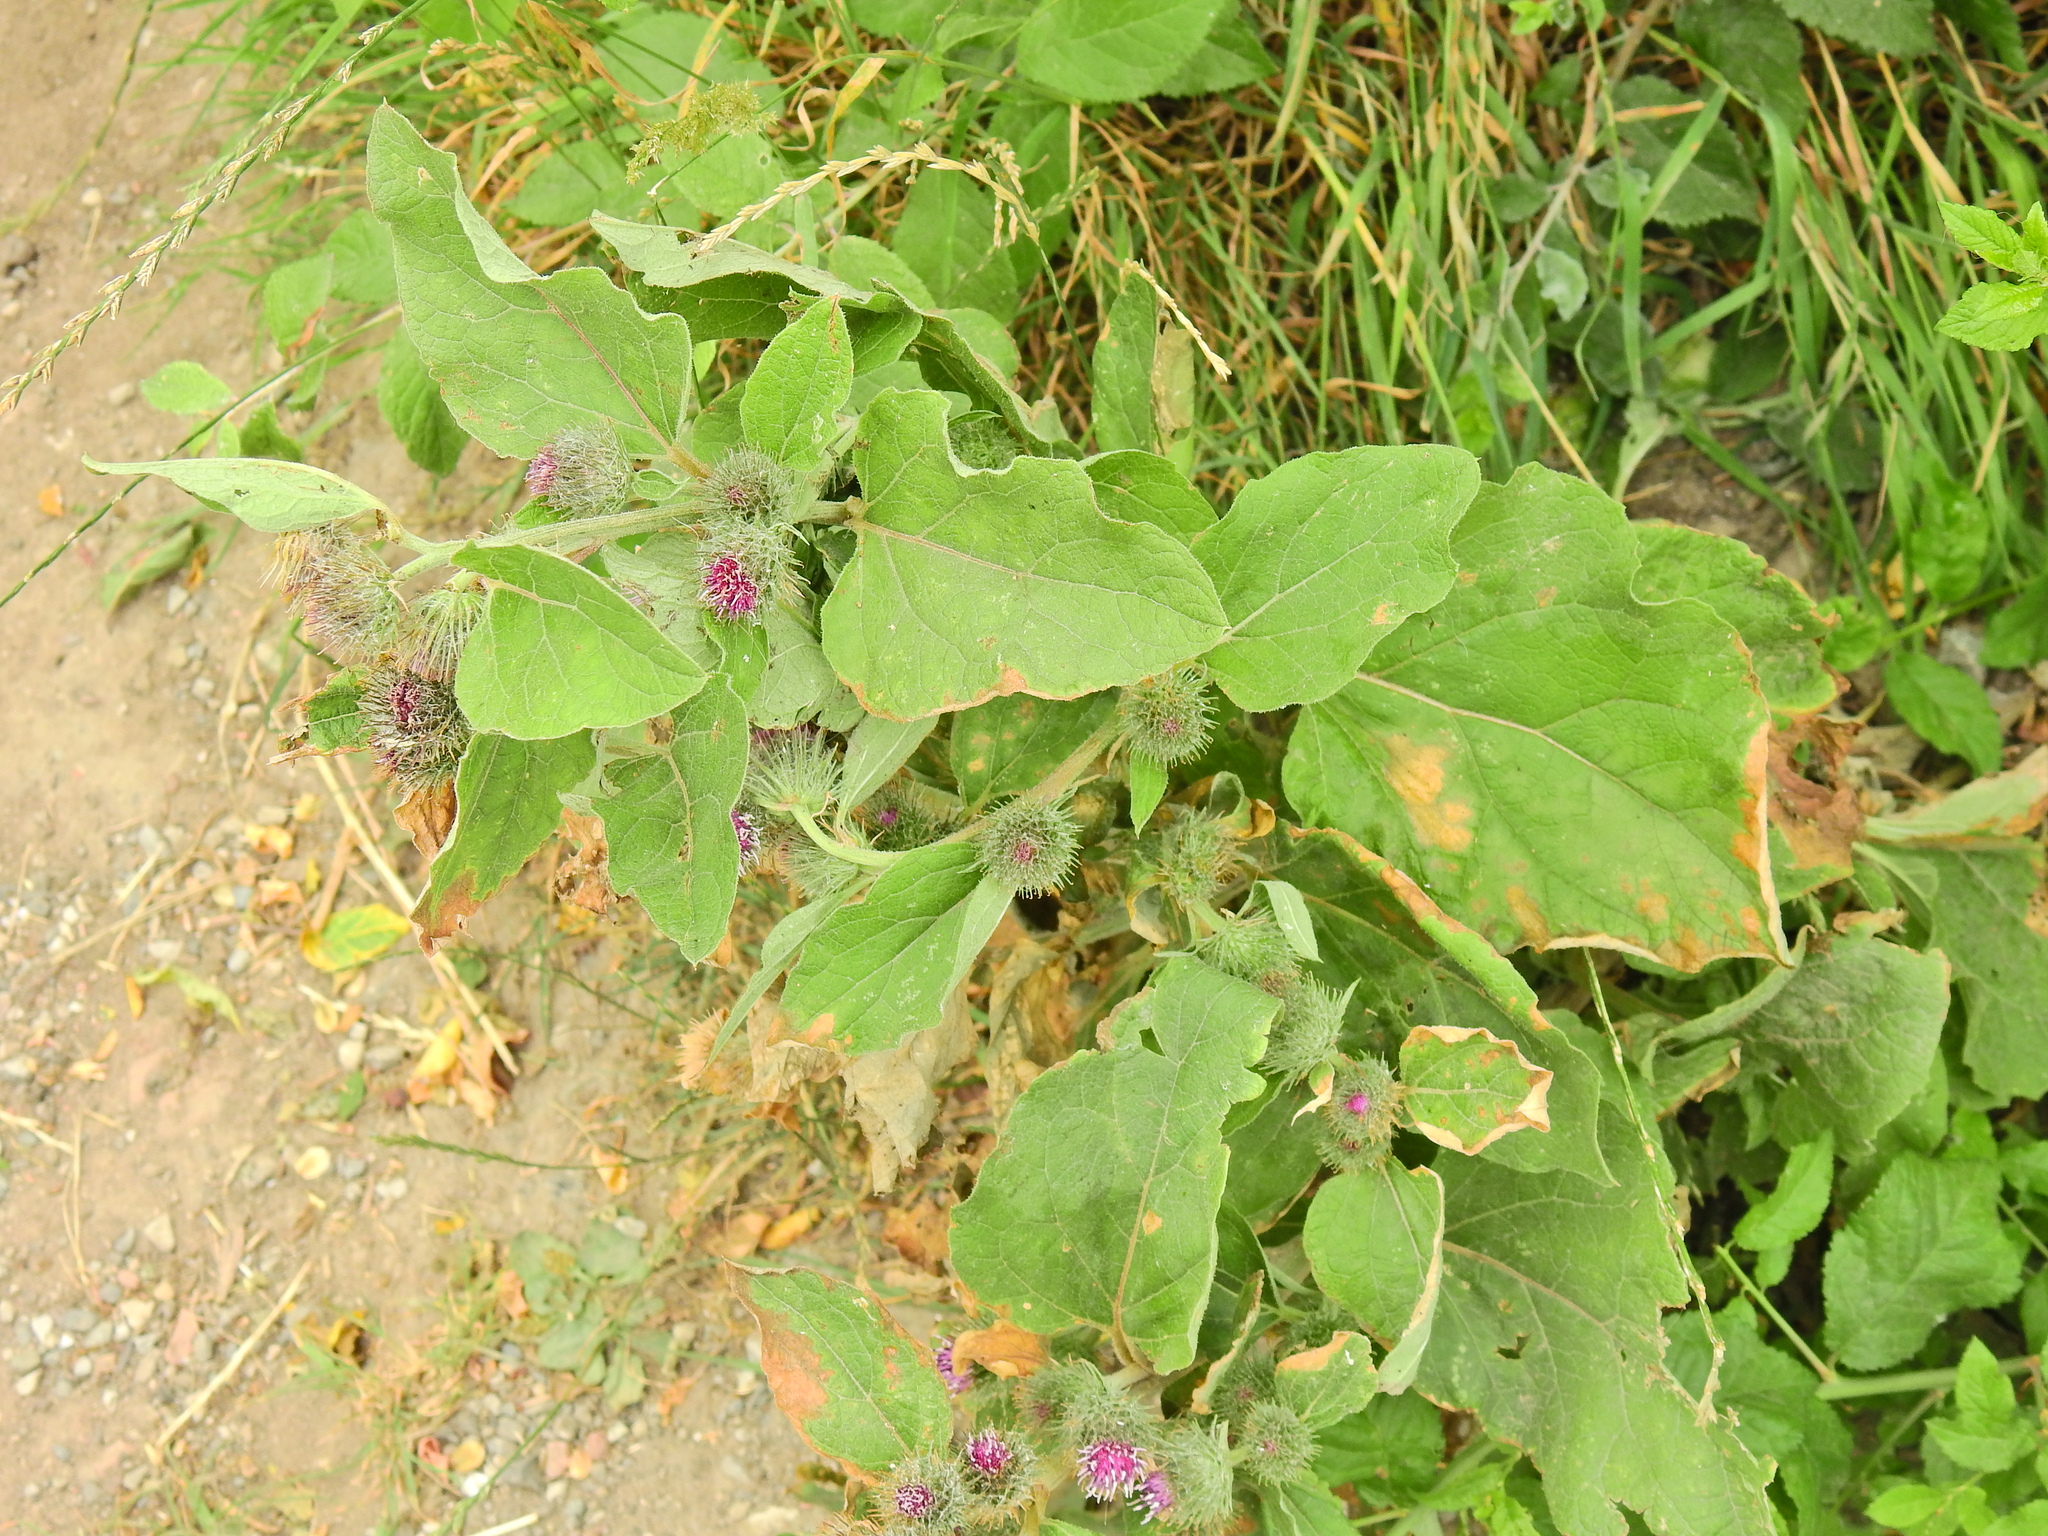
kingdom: Plantae
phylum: Tracheophyta
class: Magnoliopsida
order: Asterales
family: Asteraceae
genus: Arctium
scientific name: Arctium minus
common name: Lesser burdock
